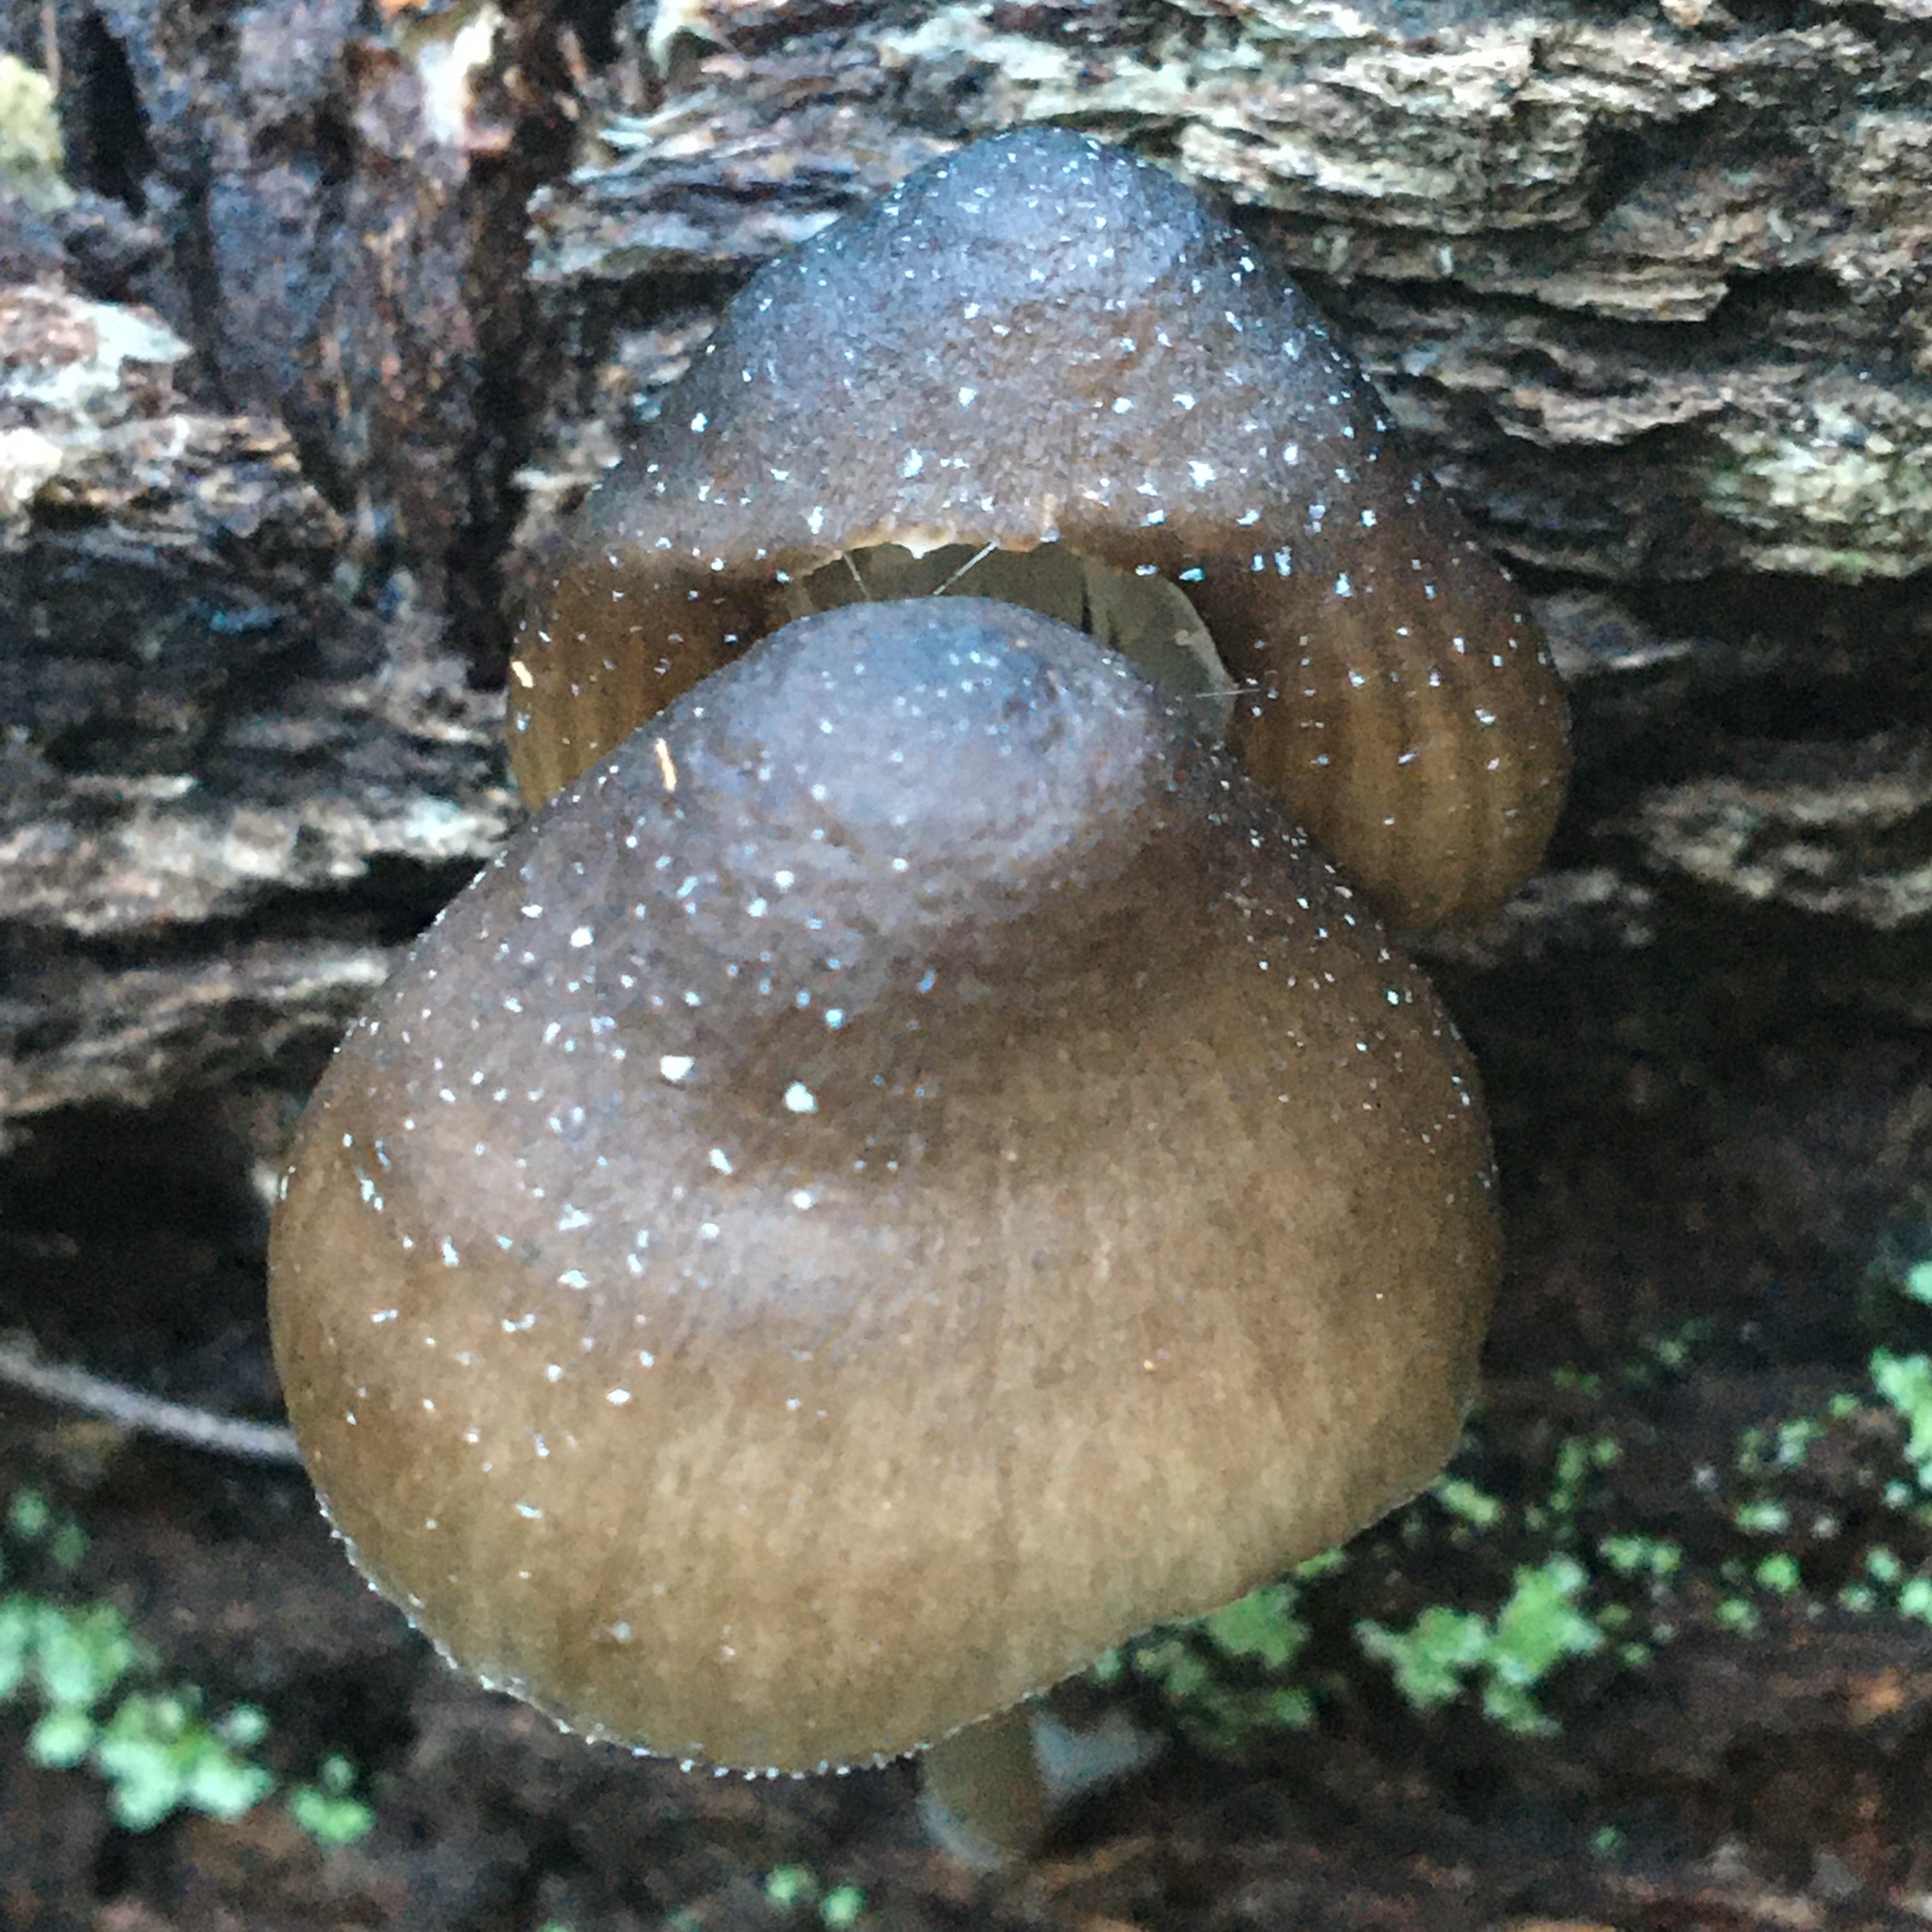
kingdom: Fungi
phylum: Basidiomycota
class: Agaricomycetes
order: Agaricales
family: Mycenaceae
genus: Mycena
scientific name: Mycena nargan
